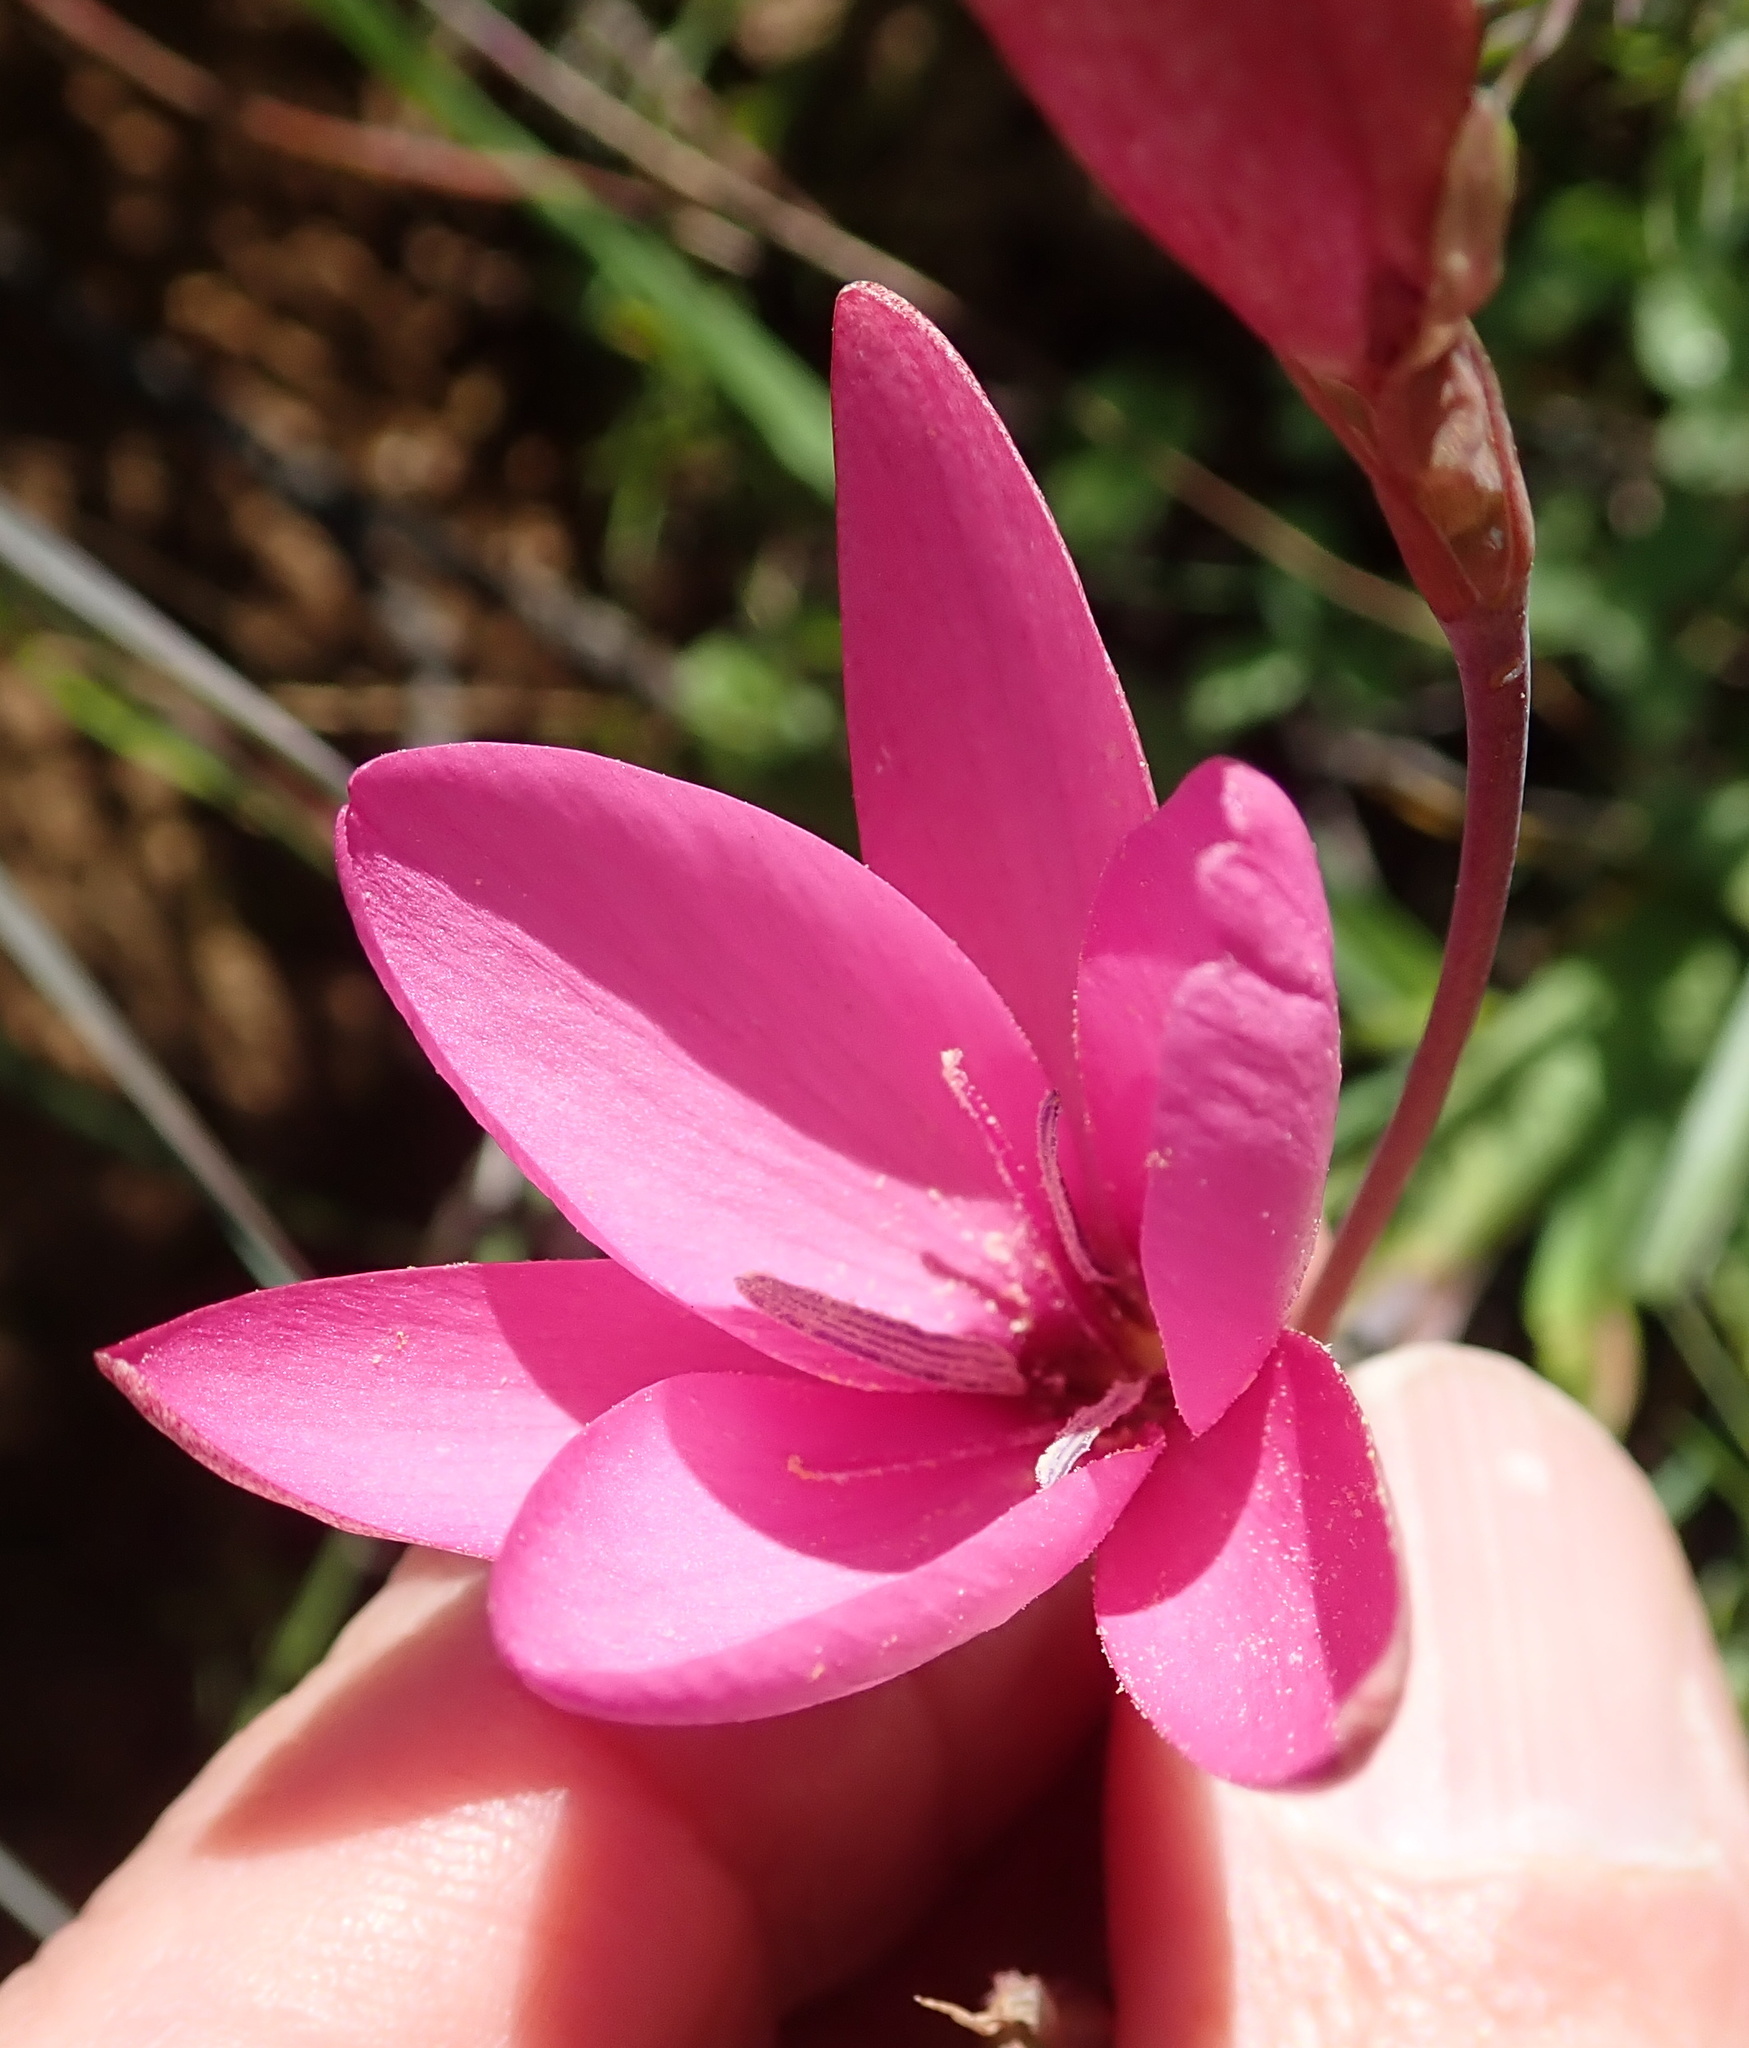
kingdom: Plantae
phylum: Tracheophyta
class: Liliopsida
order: Asparagales
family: Iridaceae
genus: Hesperantha
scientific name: Hesperantha pauciflora
